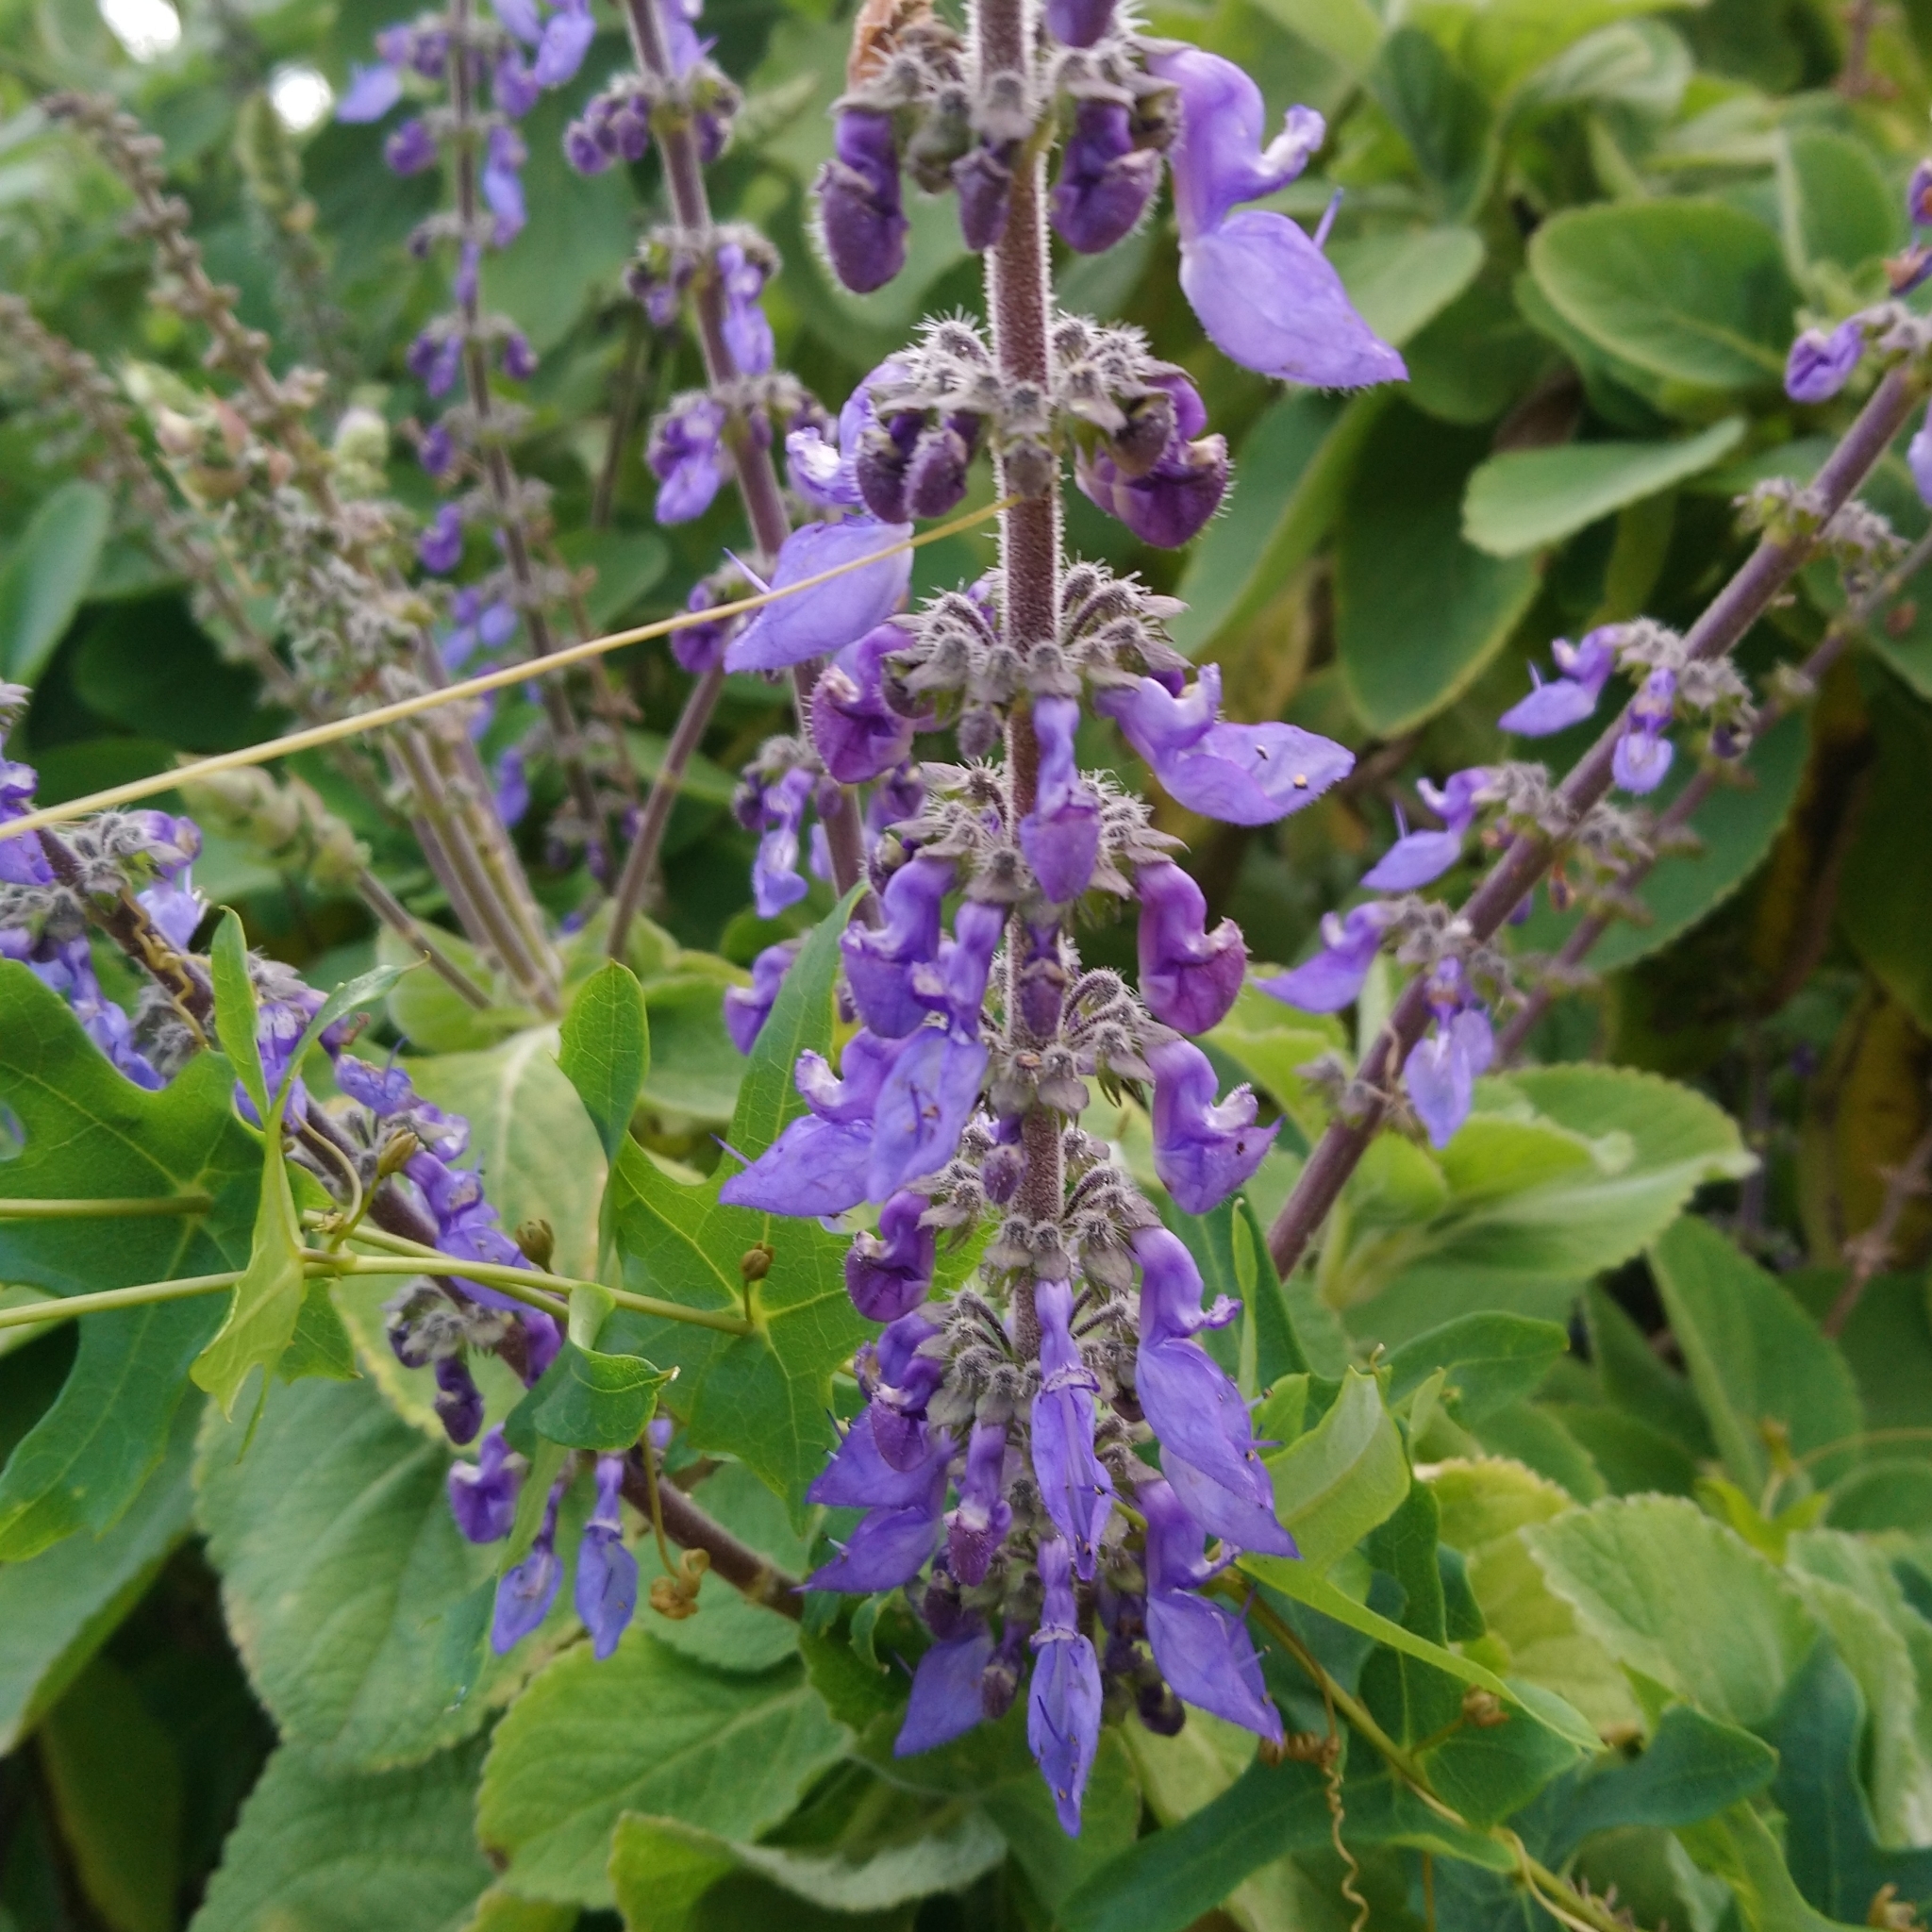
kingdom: Plantae
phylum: Tracheophyta
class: Magnoliopsida
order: Lamiales
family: Lamiaceae
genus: Coleus
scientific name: Coleus barbatus
